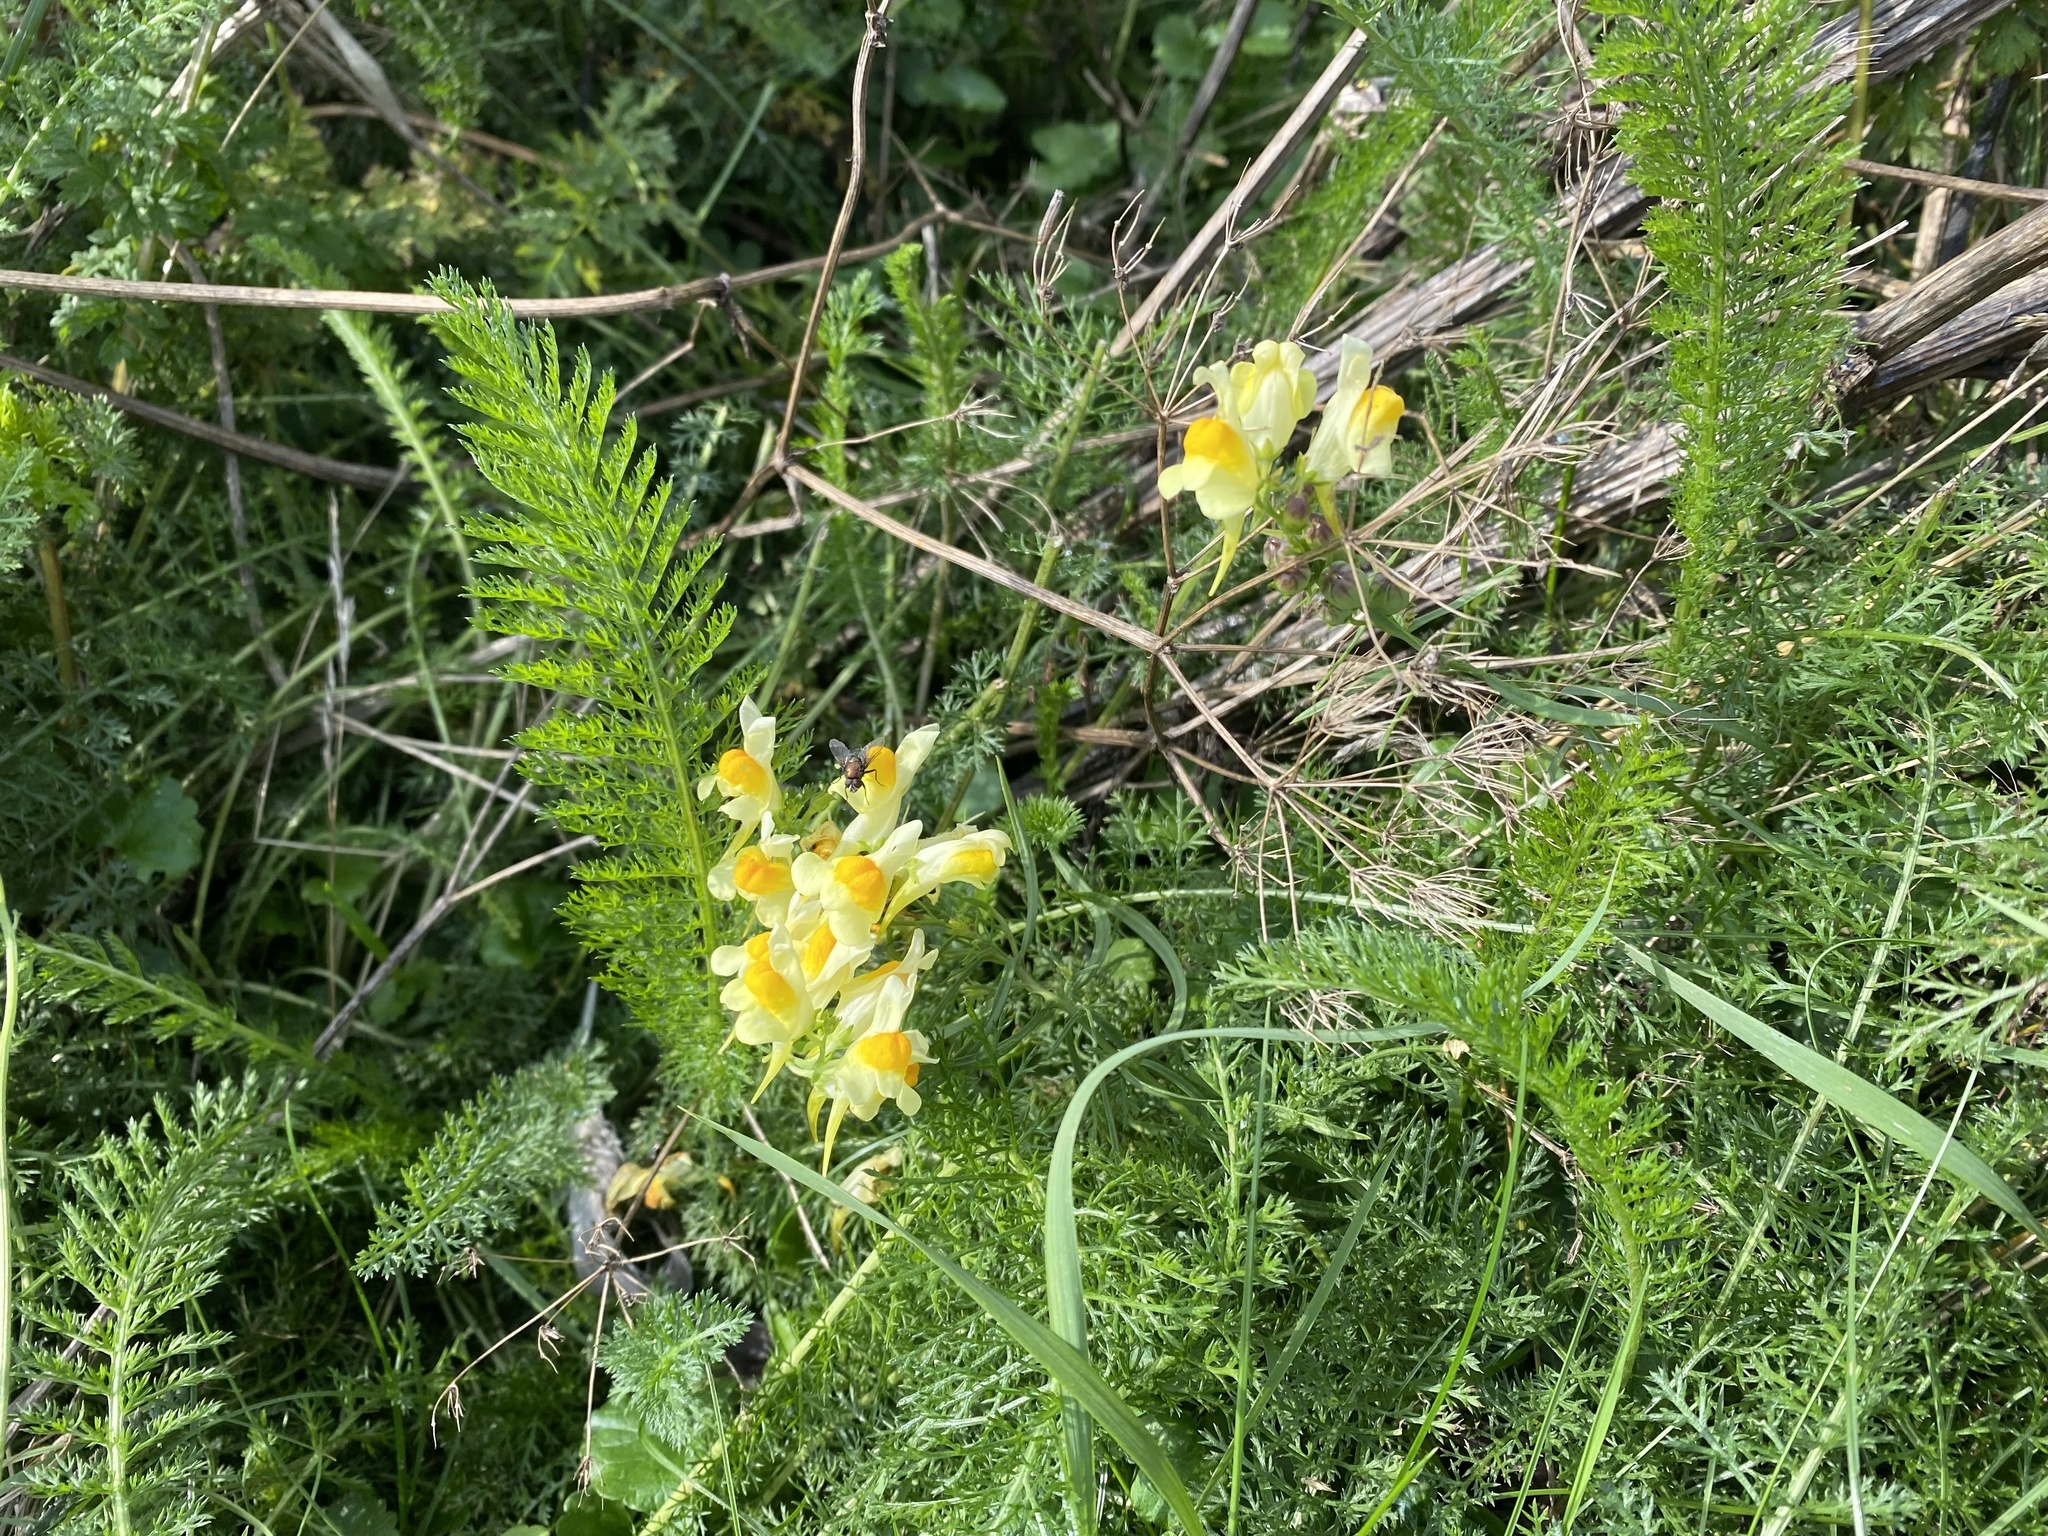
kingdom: Plantae
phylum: Tracheophyta
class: Magnoliopsida
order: Lamiales
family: Plantaginaceae
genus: Linaria
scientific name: Linaria vulgaris
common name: Butter and eggs
